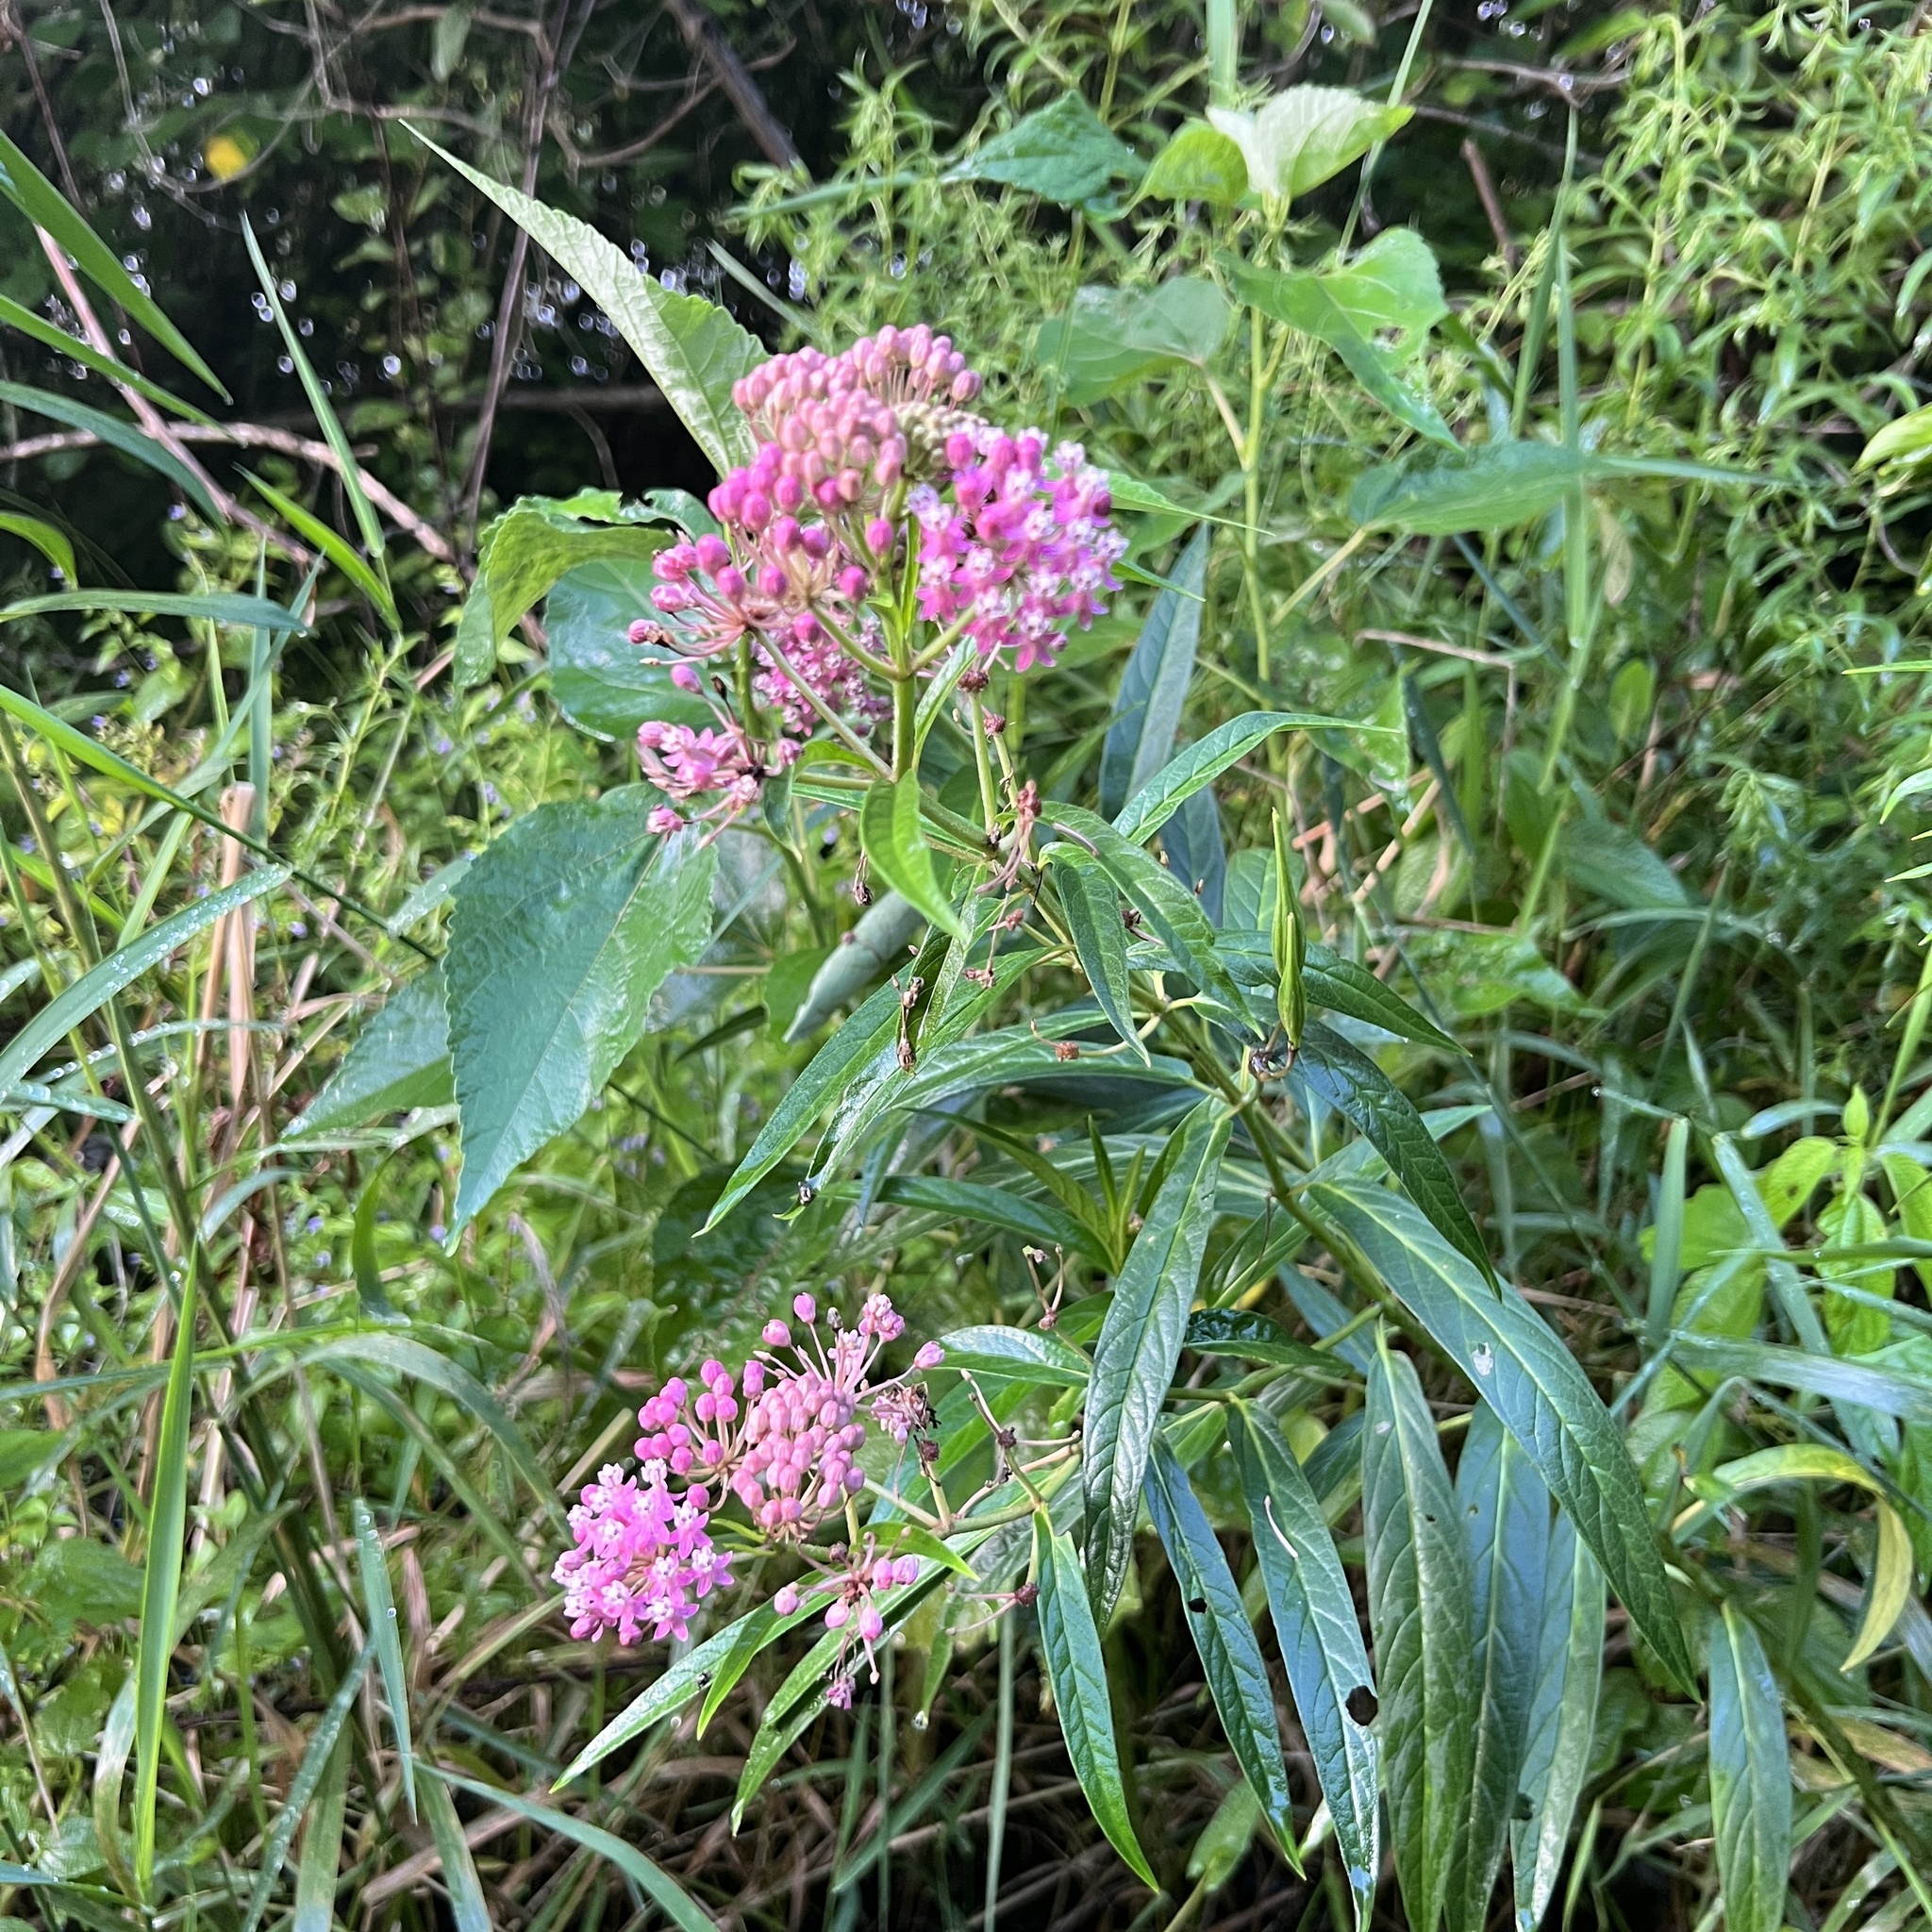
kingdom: Plantae
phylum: Tracheophyta
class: Magnoliopsida
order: Gentianales
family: Apocynaceae
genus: Asclepias
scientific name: Asclepias incarnata
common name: Swamp milkweed
